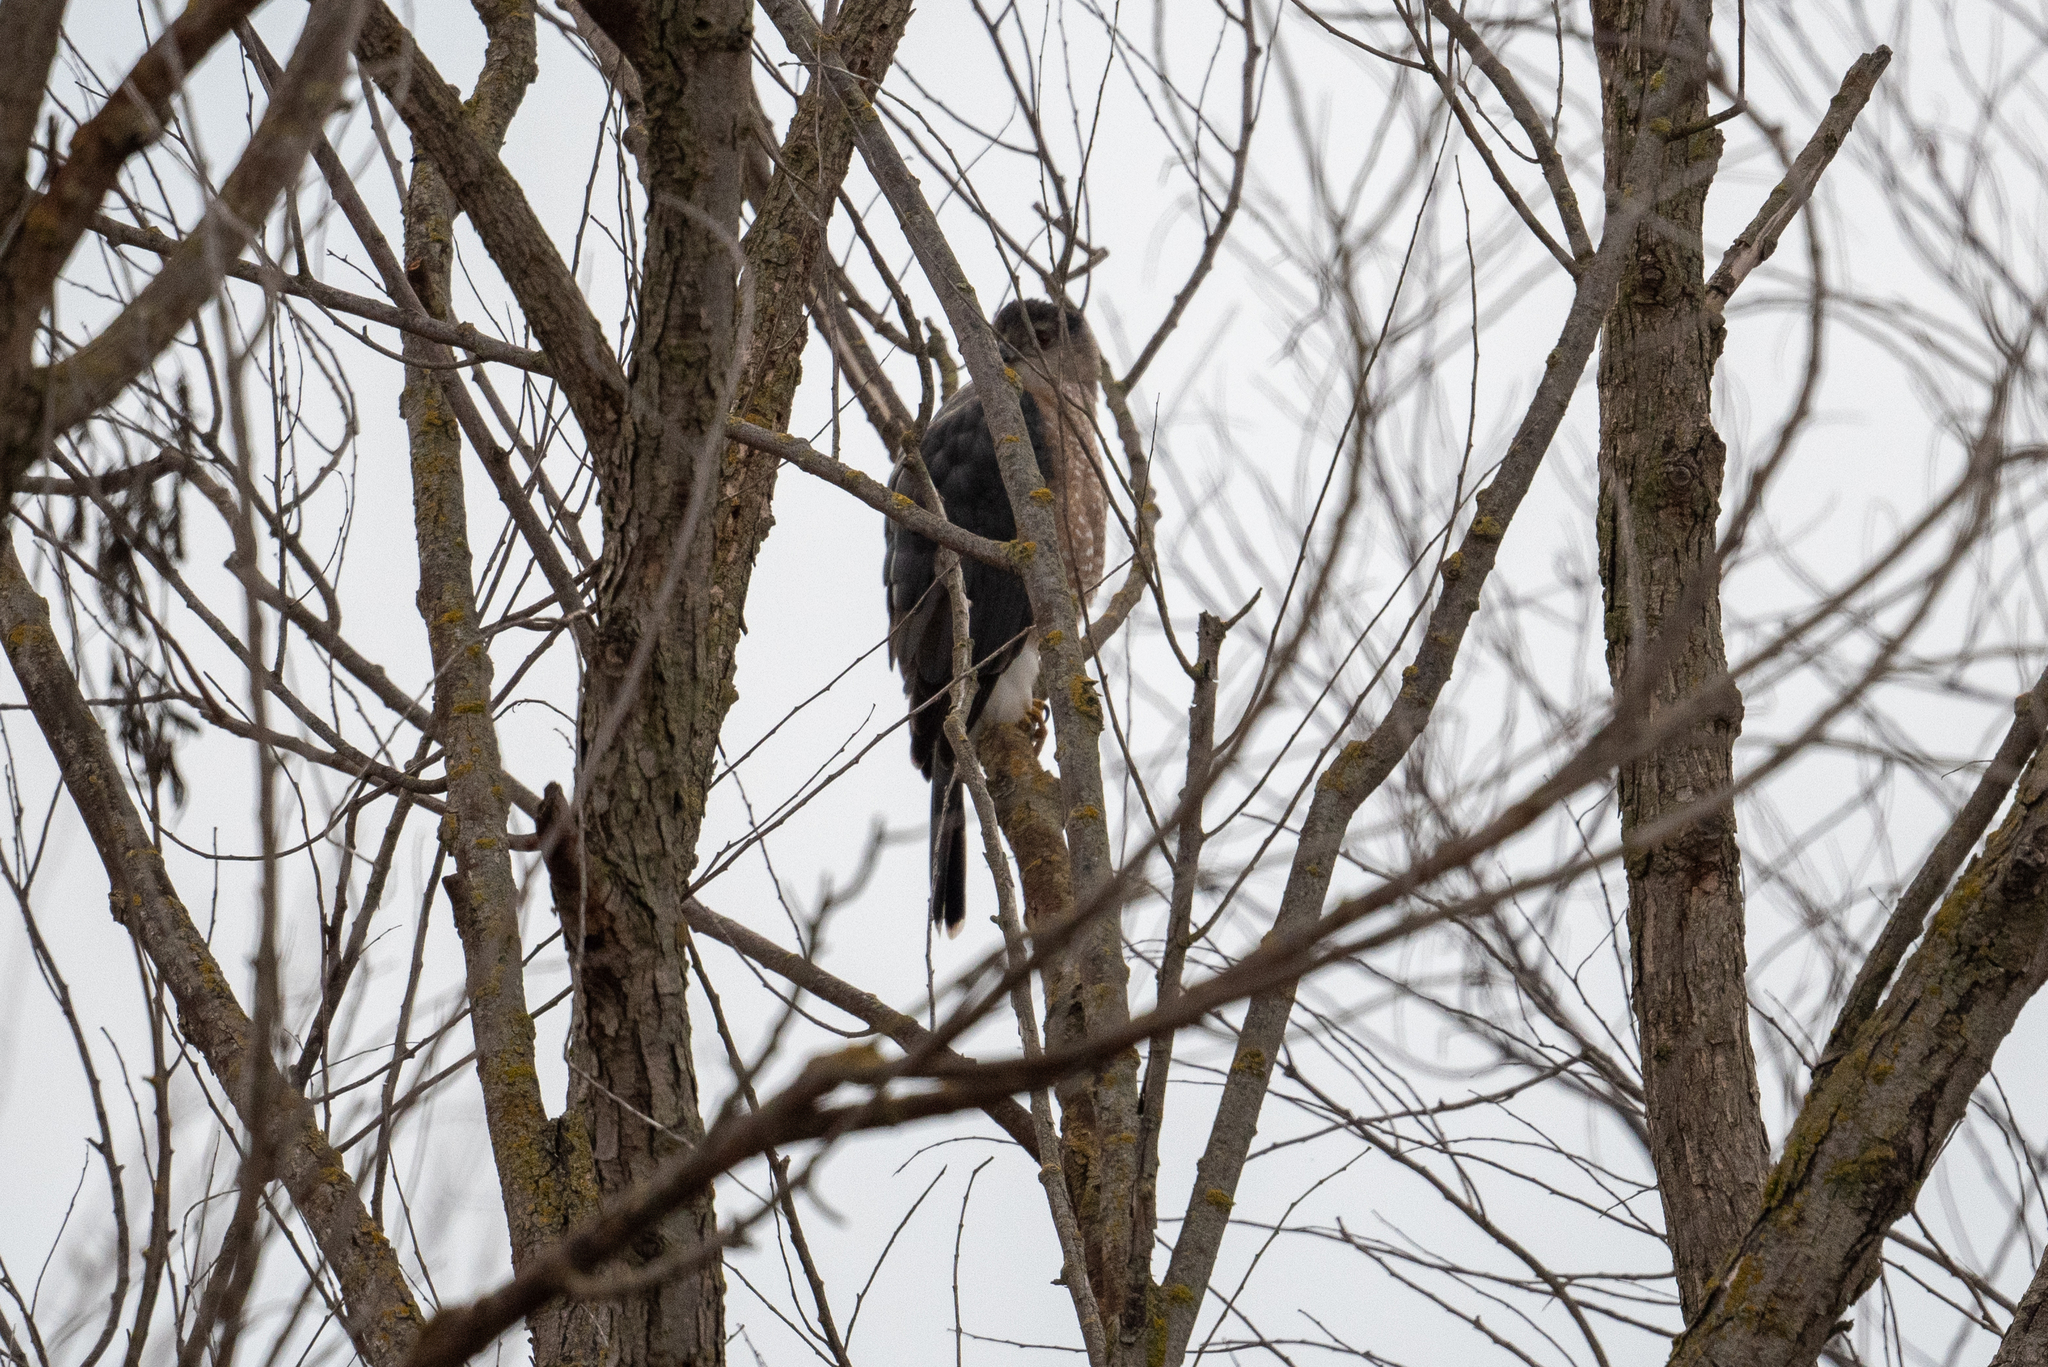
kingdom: Animalia
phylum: Chordata
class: Aves
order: Accipitriformes
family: Accipitridae
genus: Accipiter
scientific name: Accipiter cooperii
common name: Cooper's hawk
